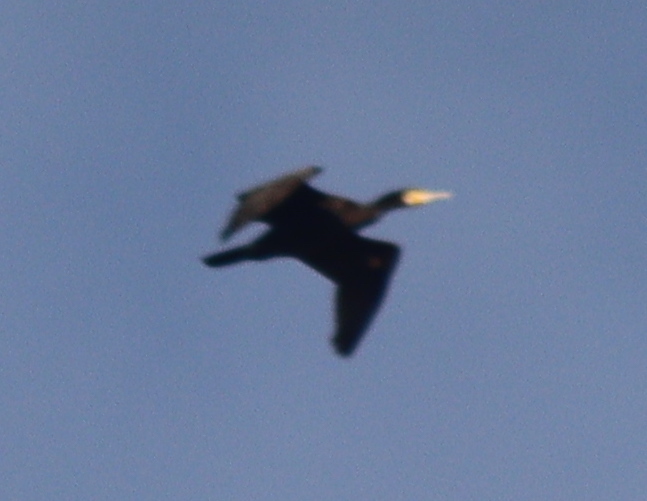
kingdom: Animalia
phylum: Chordata
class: Aves
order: Suliformes
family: Phalacrocoracidae
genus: Phalacrocorax
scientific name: Phalacrocorax carbo
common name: Great cormorant
